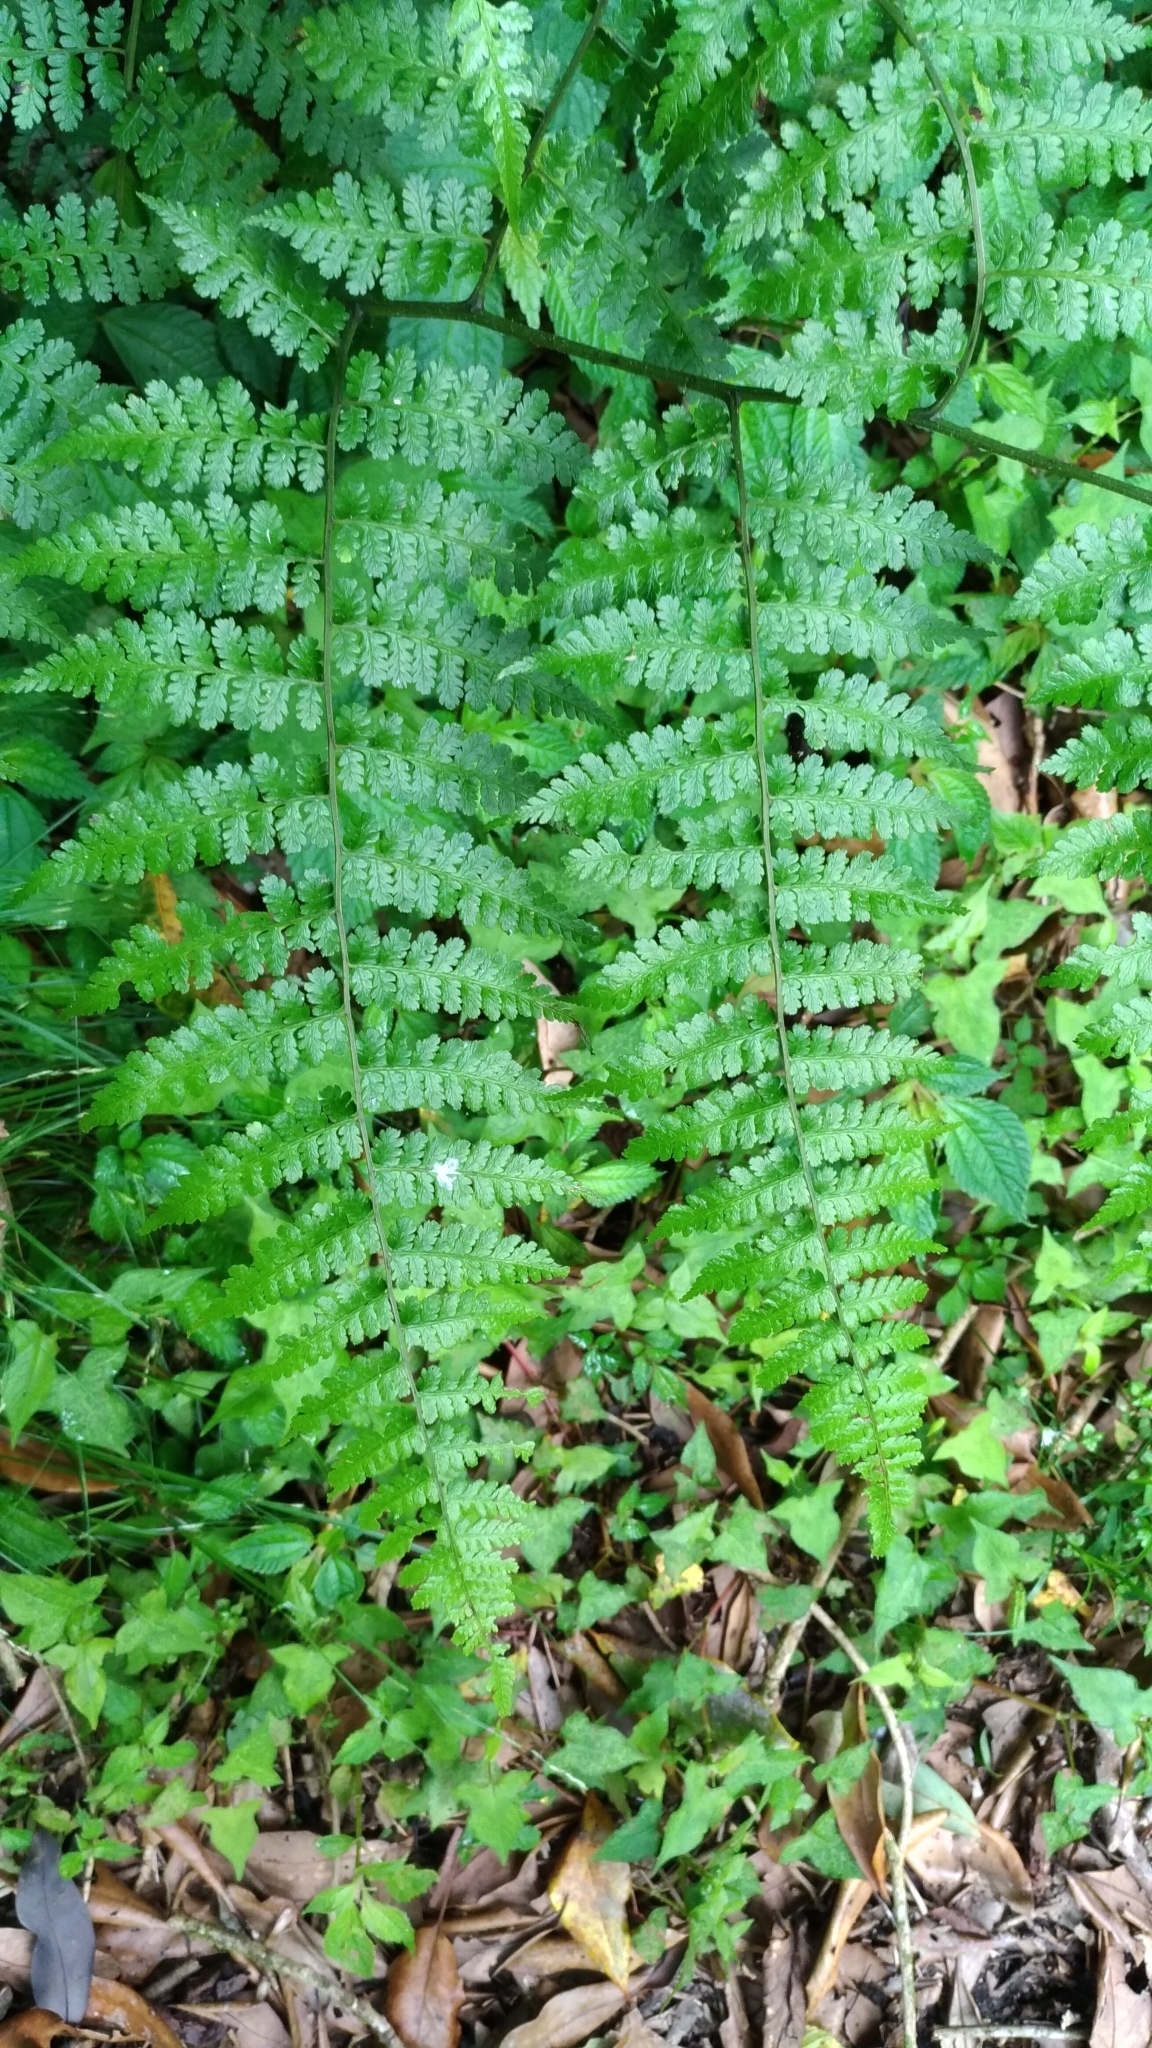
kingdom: Plantae
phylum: Tracheophyta
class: Polypodiopsida
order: Polypodiales
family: Athyriaceae
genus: Diplazium
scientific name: Diplazium kawakamii
